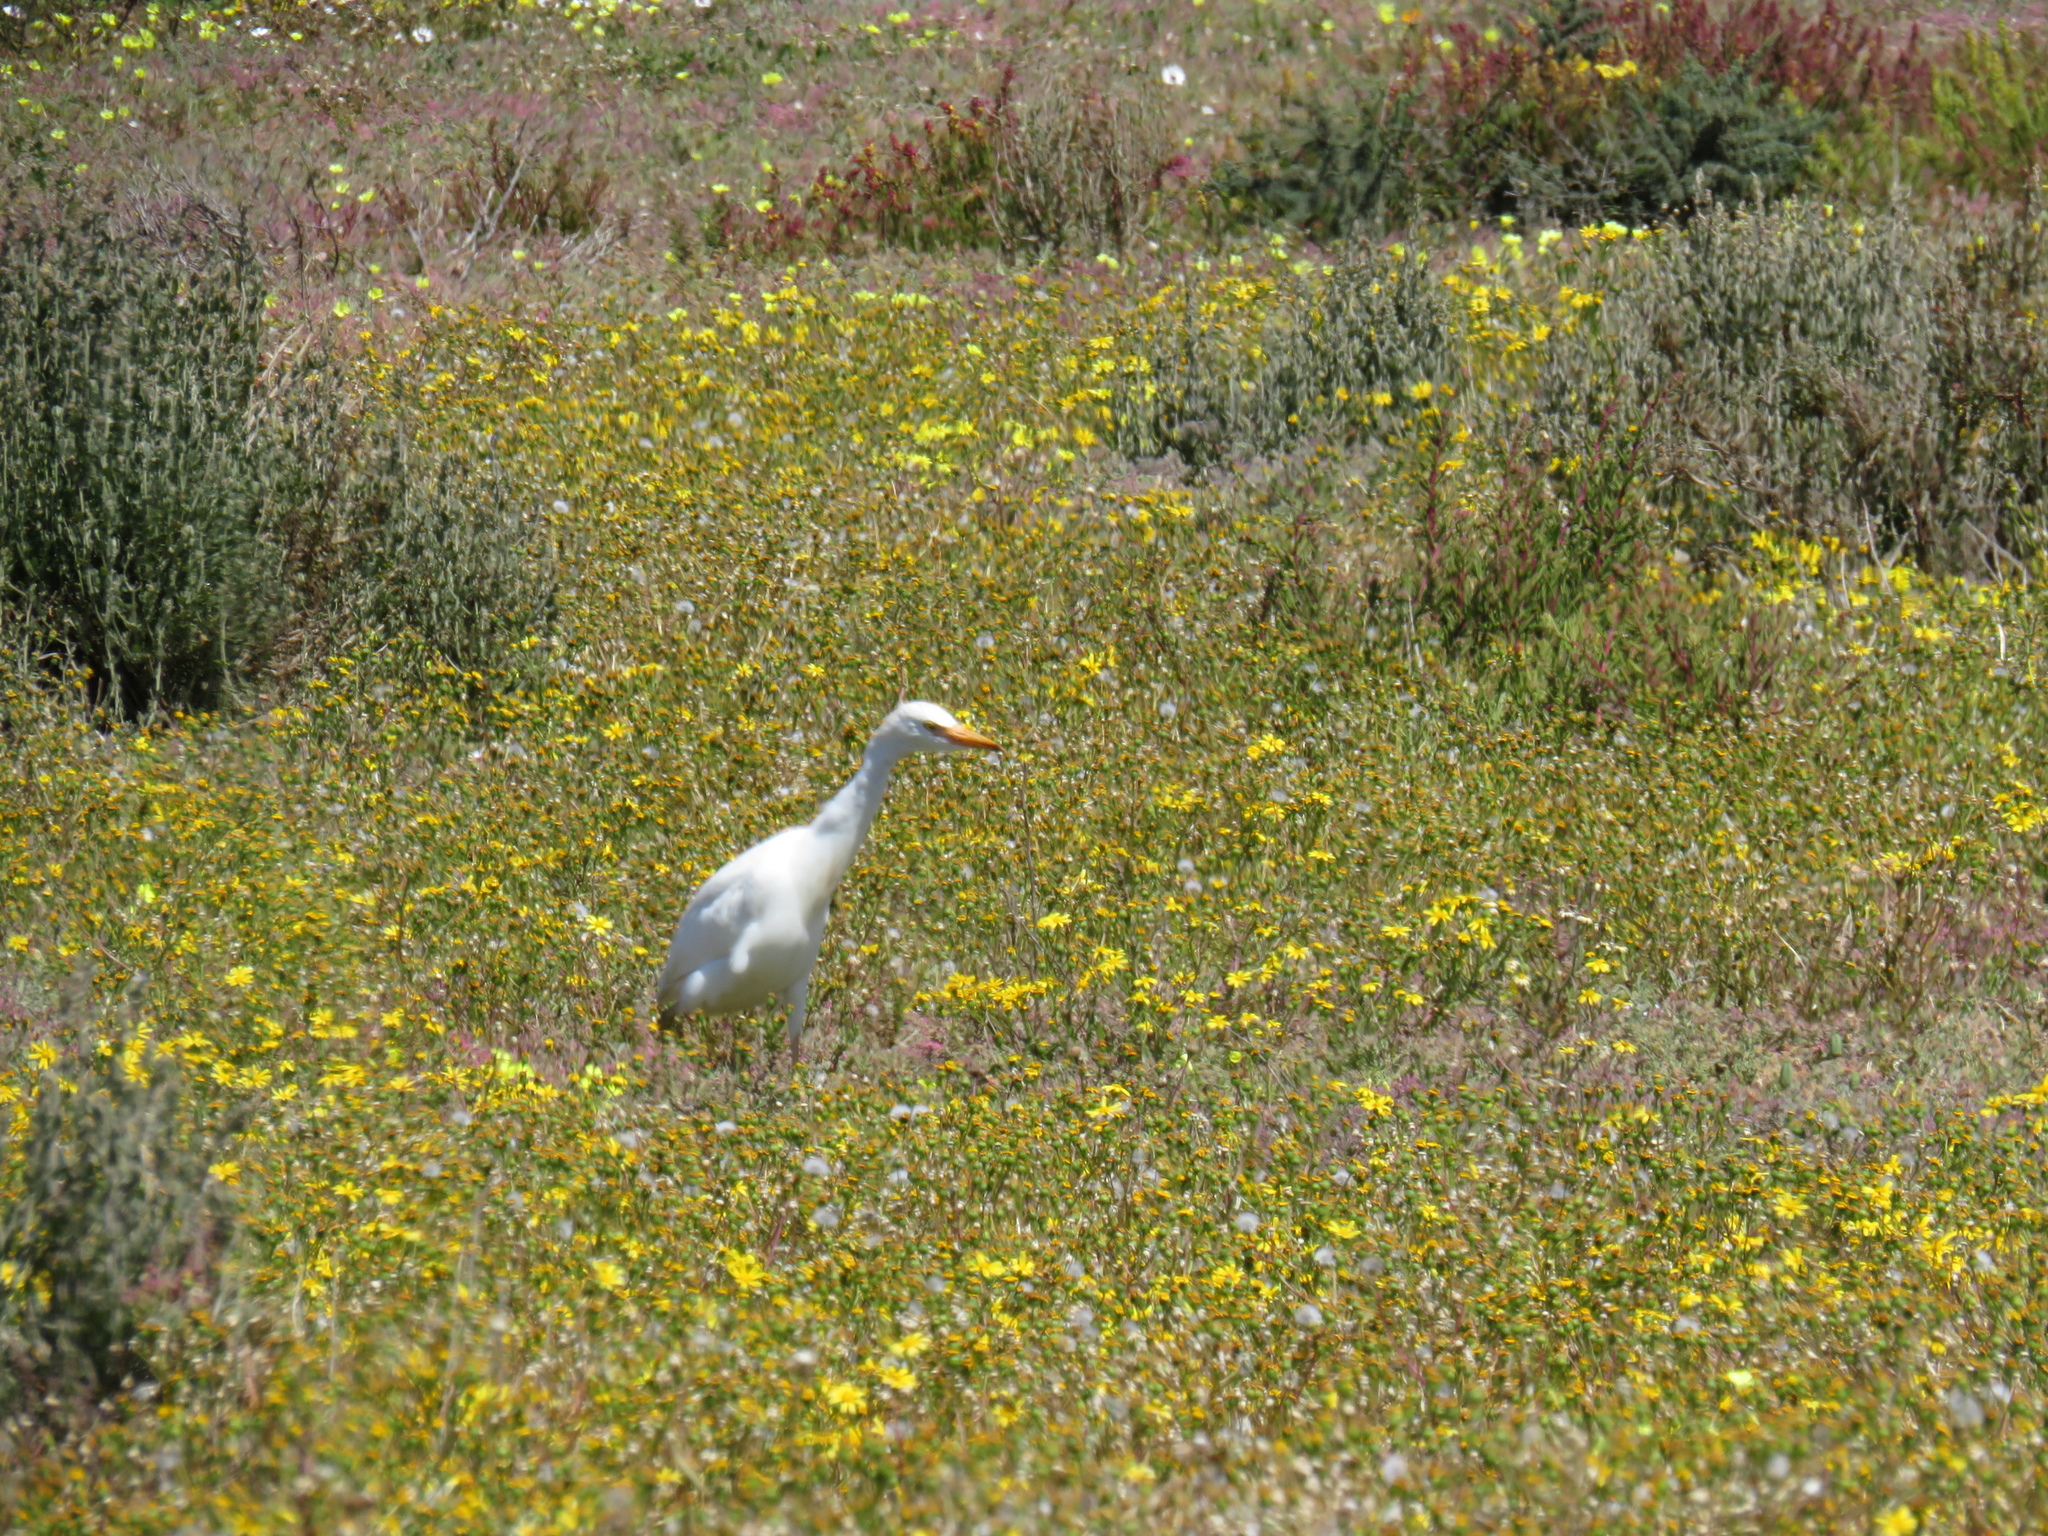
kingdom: Animalia
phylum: Chordata
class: Aves
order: Pelecaniformes
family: Ardeidae
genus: Bubulcus
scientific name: Bubulcus ibis
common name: Cattle egret
